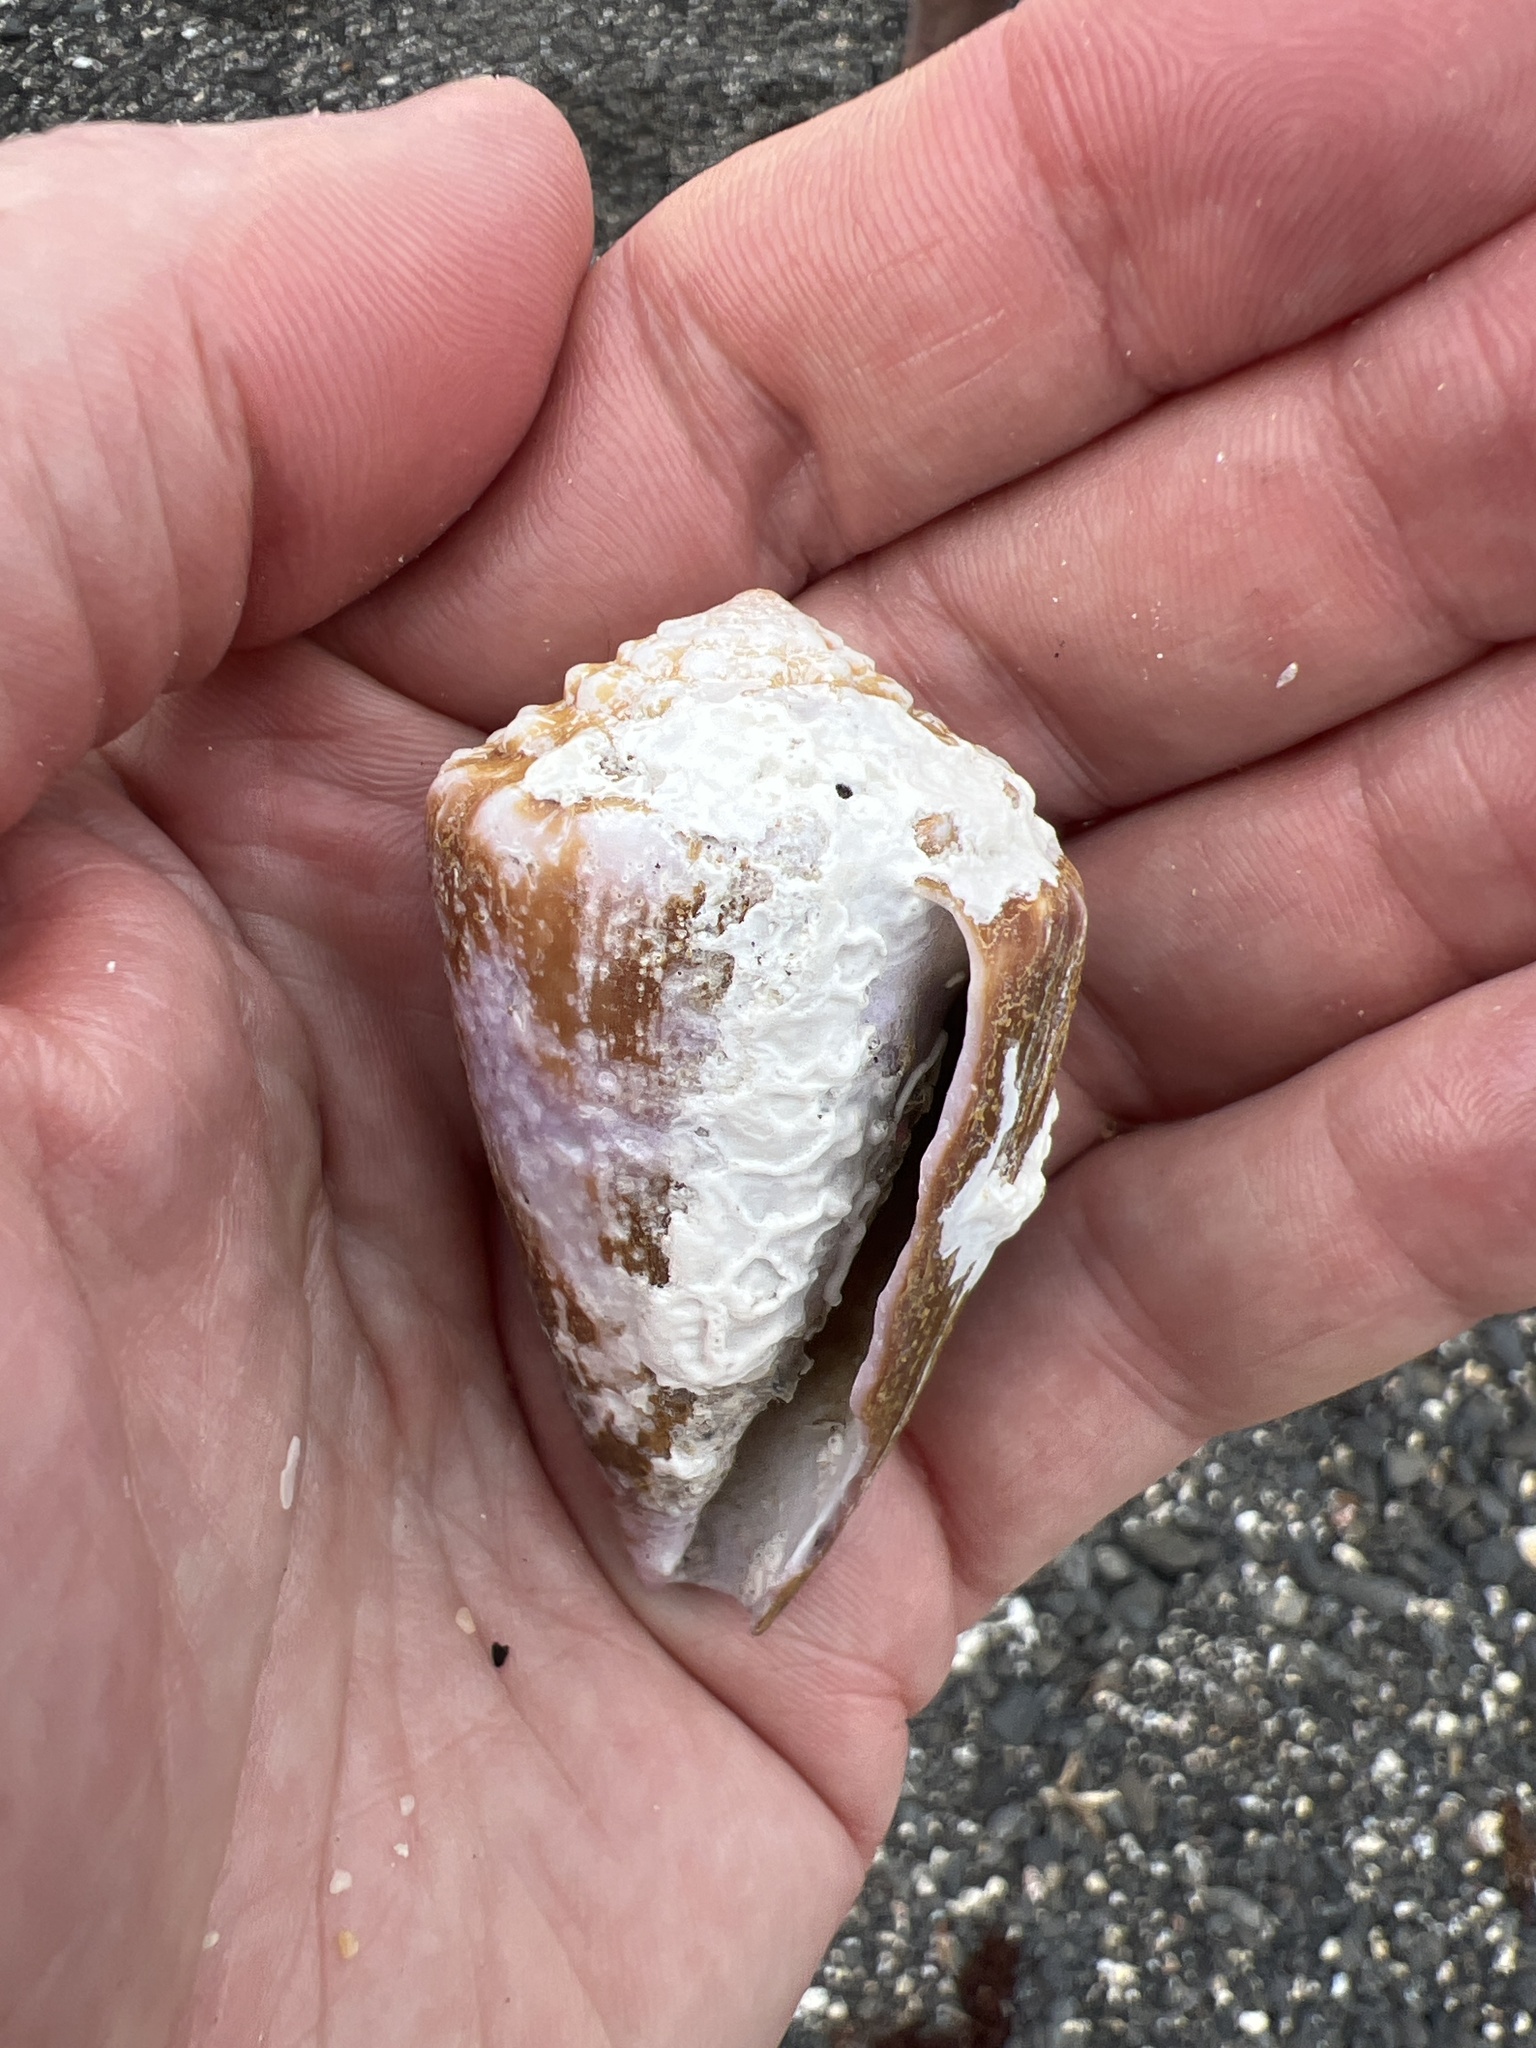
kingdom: Animalia
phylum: Mollusca
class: Gastropoda
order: Neogastropoda
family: Conidae
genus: Conus
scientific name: Conus diadema
